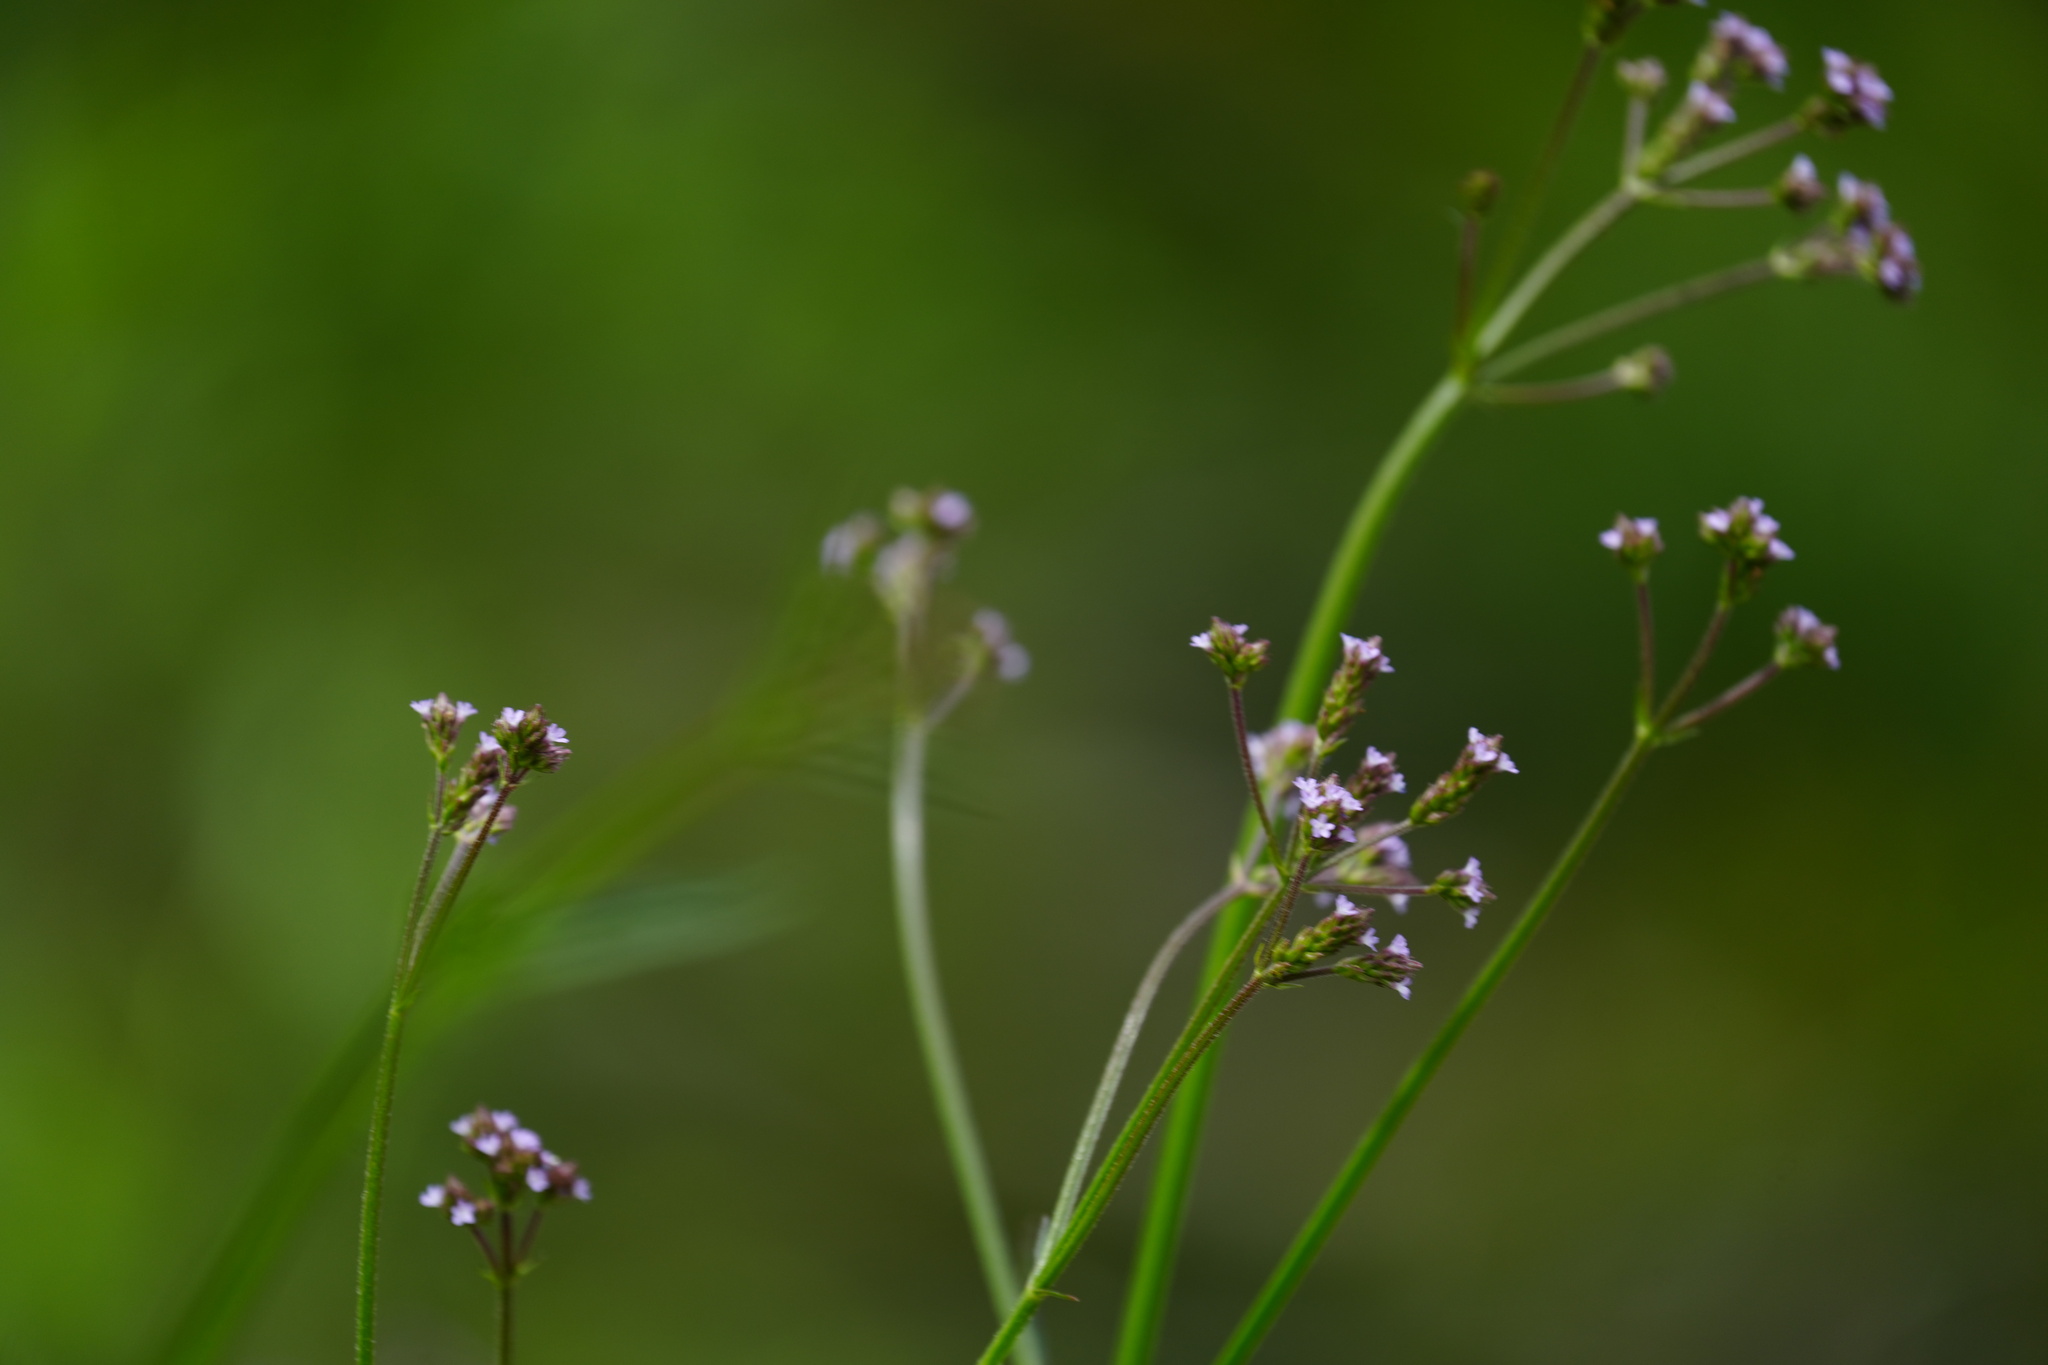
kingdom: Plantae
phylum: Tracheophyta
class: Magnoliopsida
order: Lamiales
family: Verbenaceae
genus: Verbena
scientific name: Verbena brasiliensis
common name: Brazilian vervain
